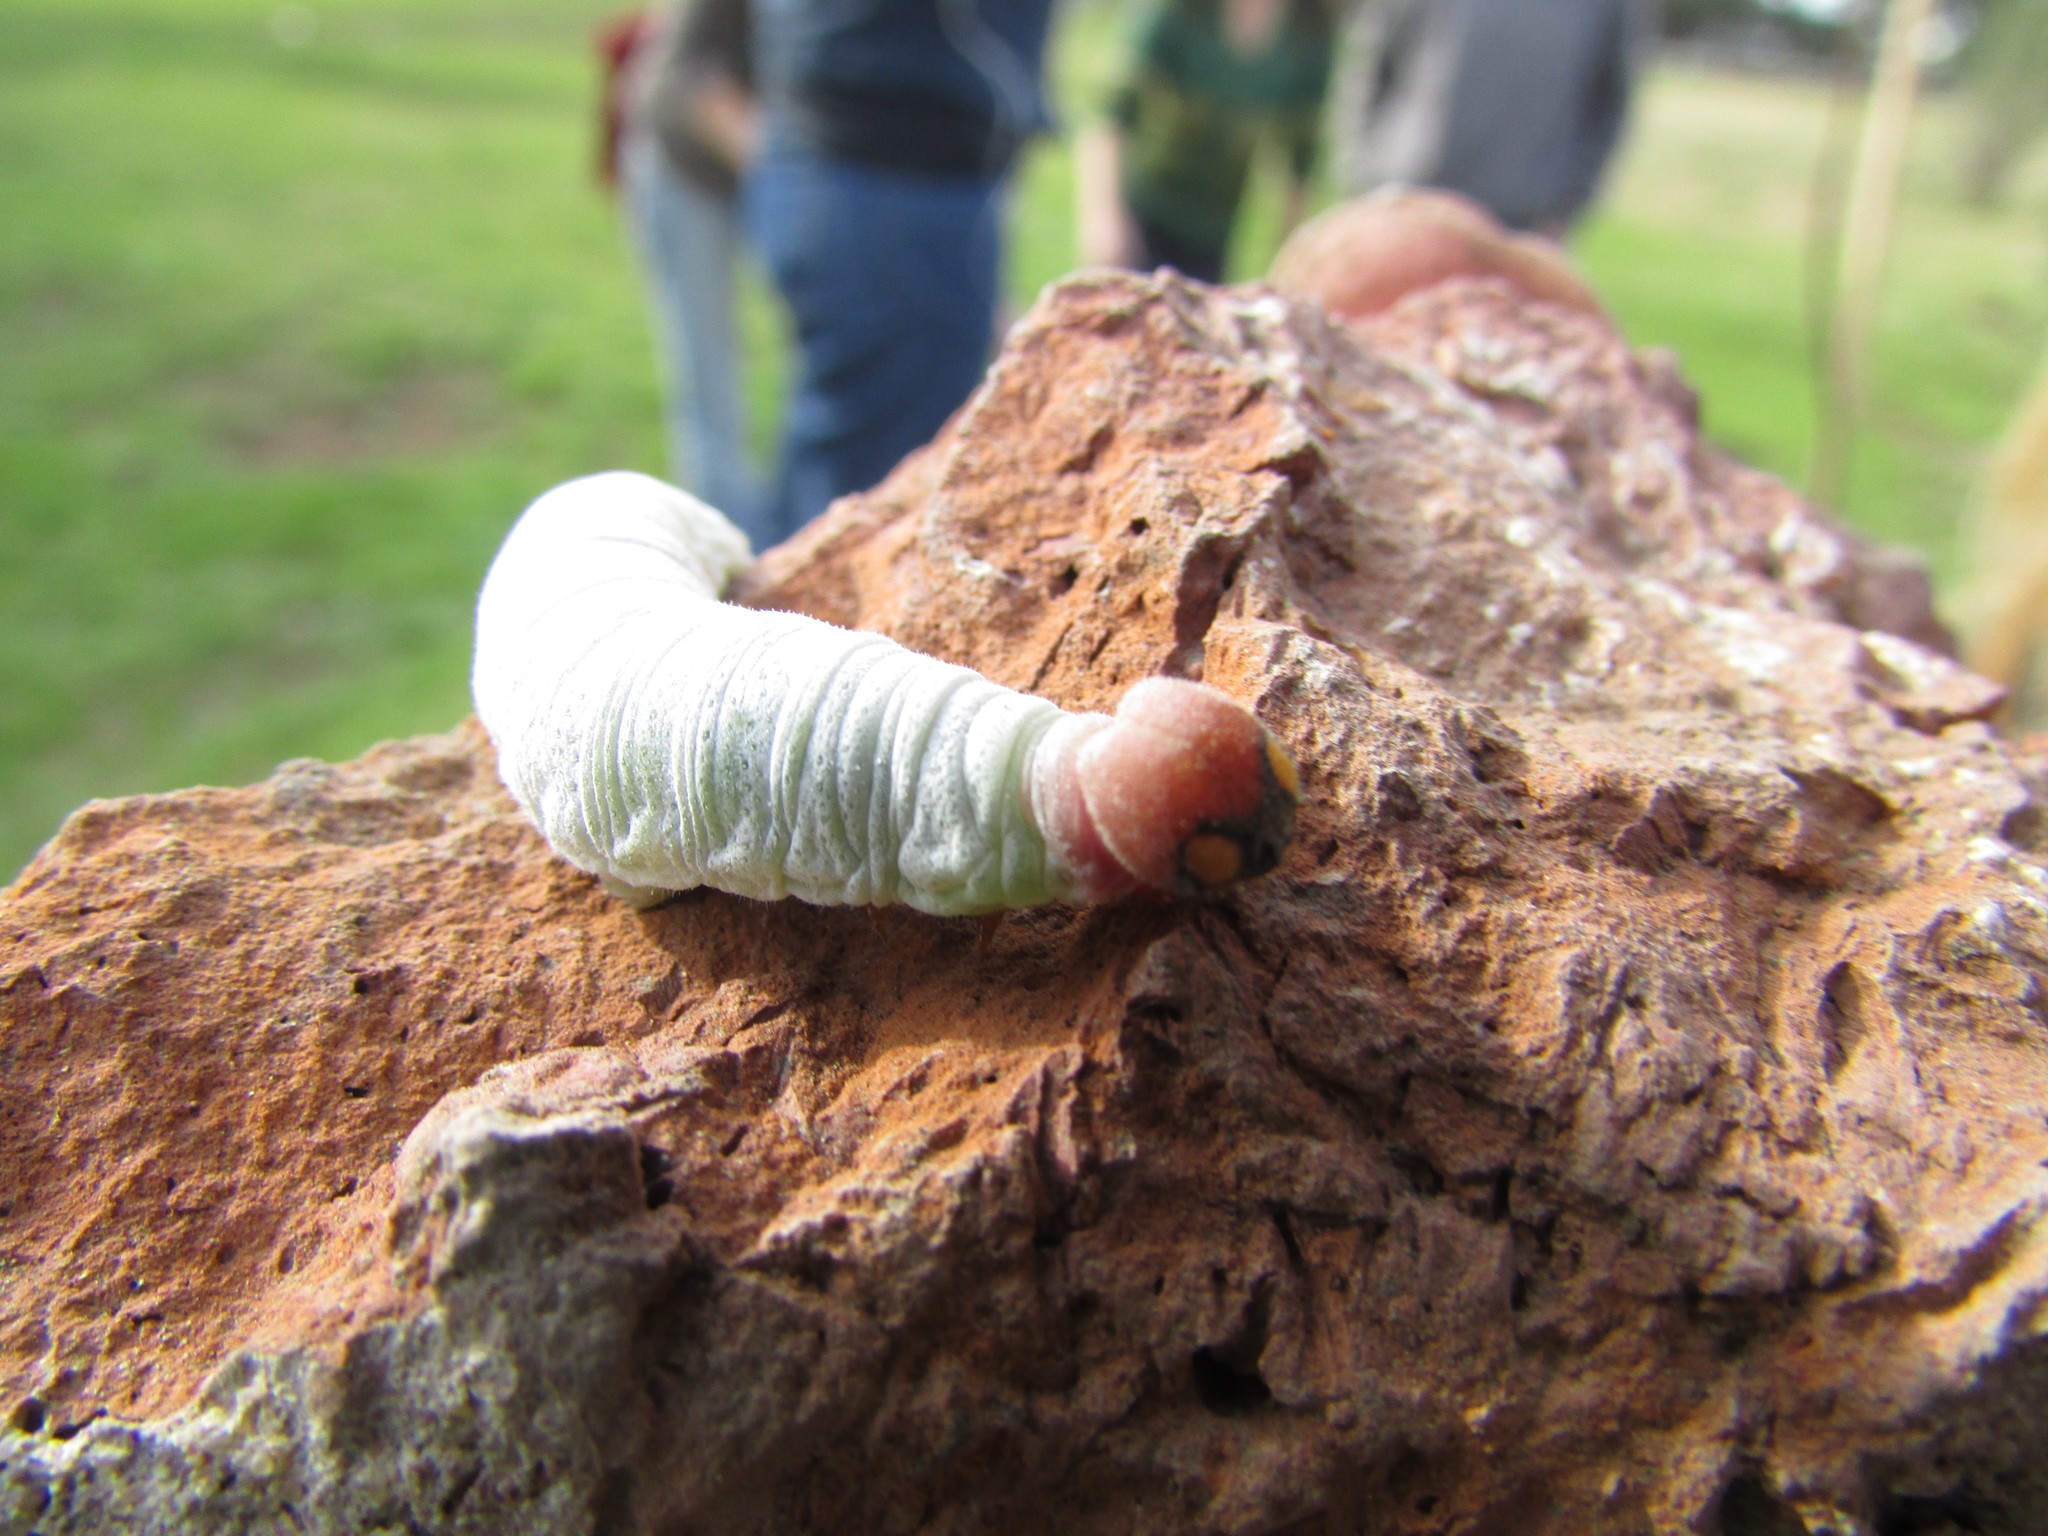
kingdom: Animalia
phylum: Arthropoda
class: Insecta
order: Lepidoptera
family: Hesperiidae
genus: Phocides
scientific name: Phocides polybius
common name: Guava skipper
